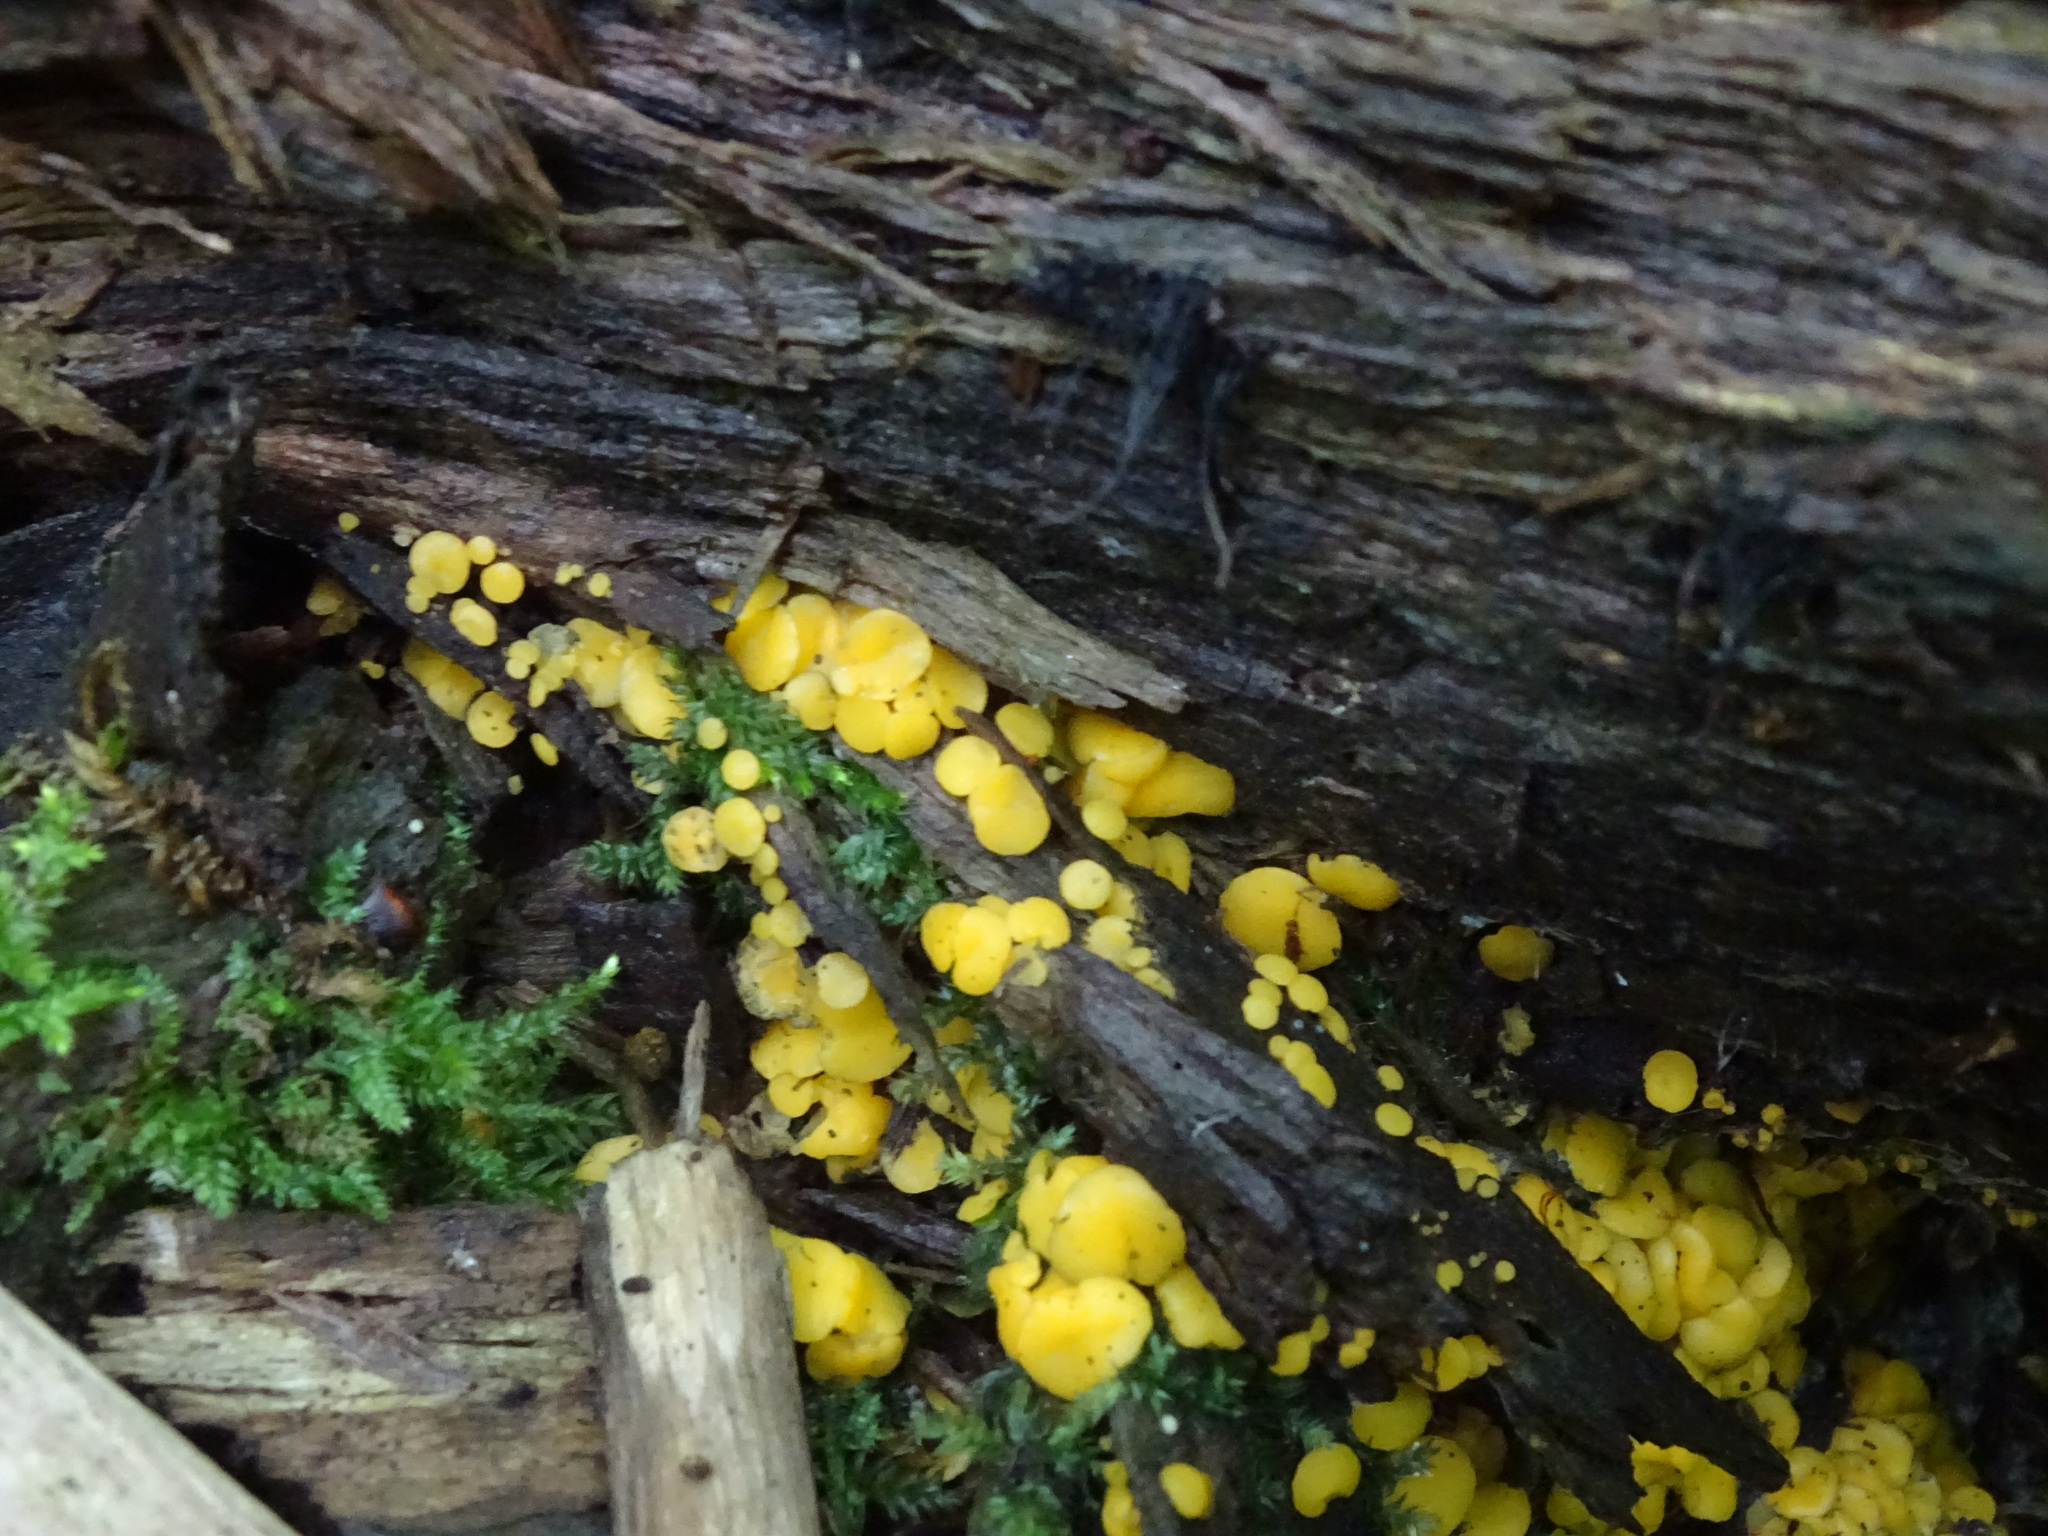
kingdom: Fungi
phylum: Ascomycota
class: Leotiomycetes
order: Helotiales
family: Pezizellaceae
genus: Calycina
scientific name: Calycina citrina
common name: Yellow fairy cups
